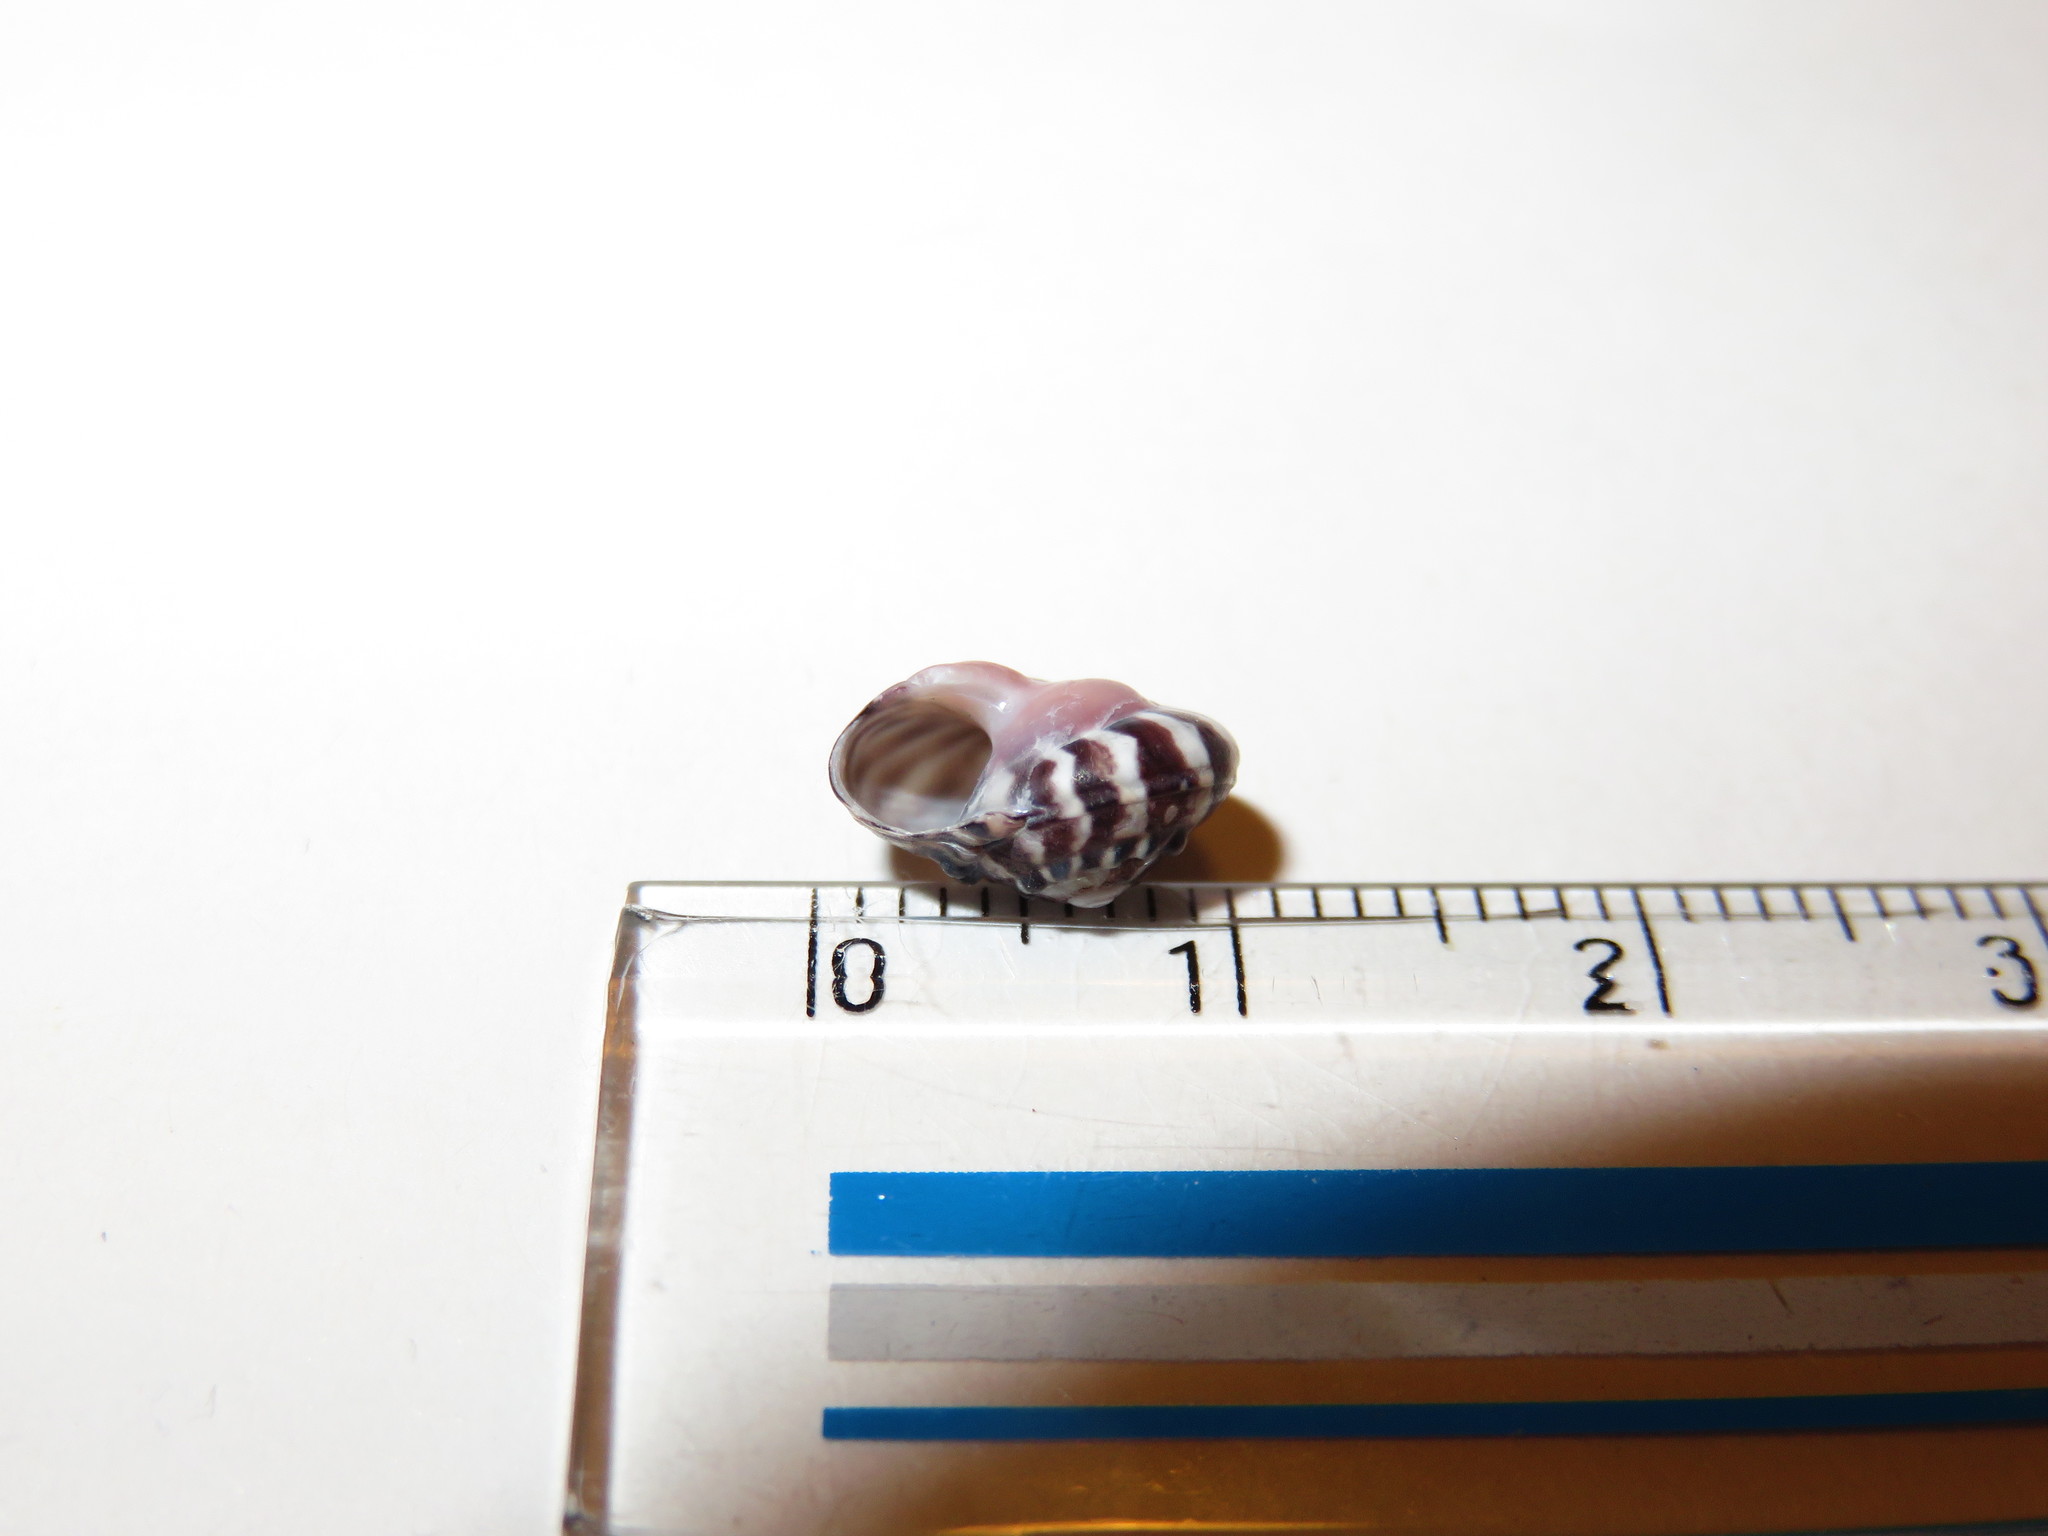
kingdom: Animalia
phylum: Mollusca
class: Gastropoda
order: Trochida
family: Trochidae
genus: Umbonium
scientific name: Umbonium moniliferum
